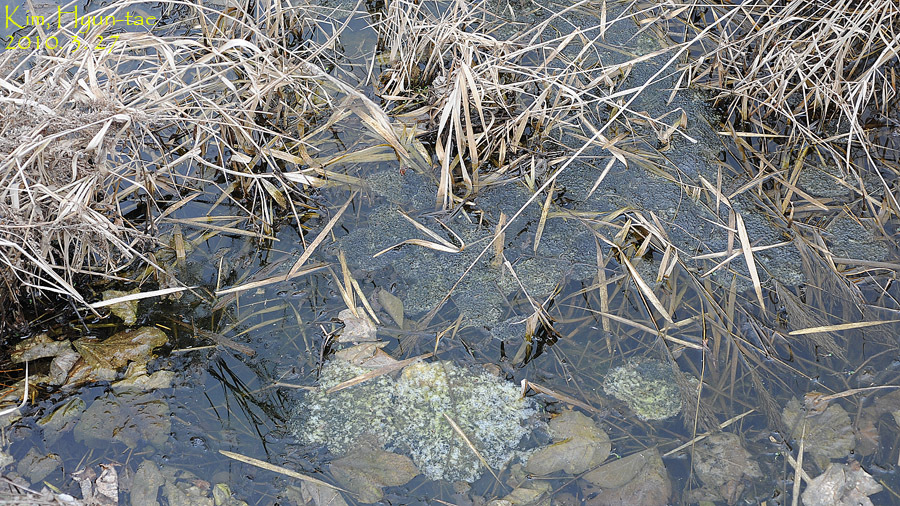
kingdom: Animalia
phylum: Chordata
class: Amphibia
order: Anura
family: Ranidae
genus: Rana
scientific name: Rana uenoi
